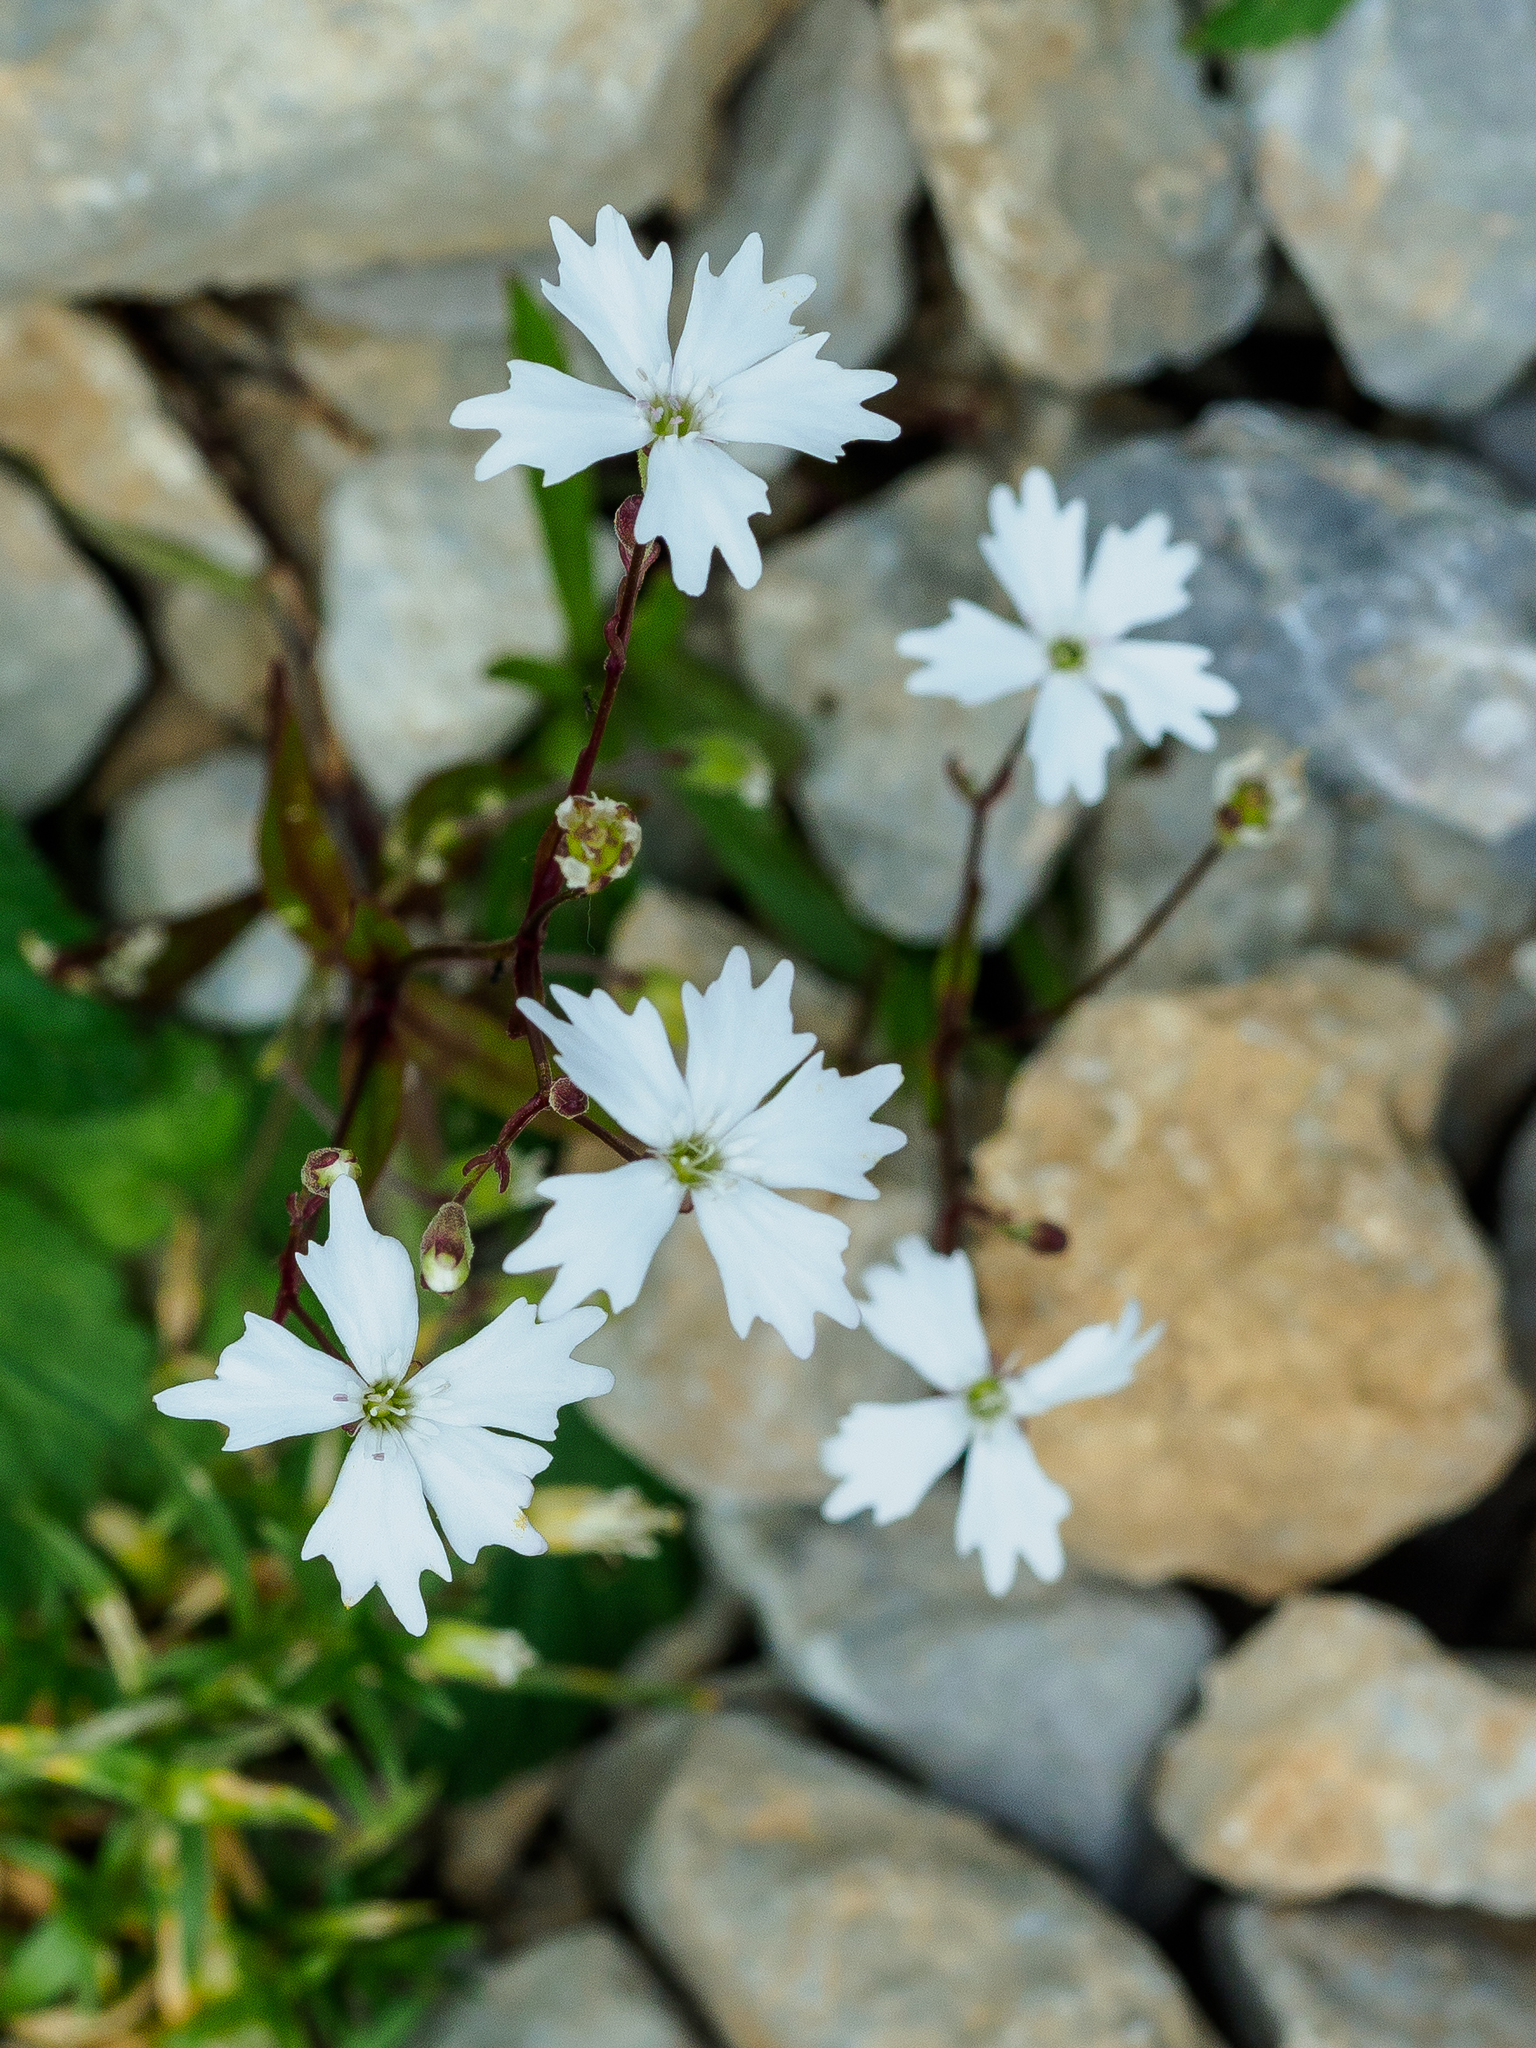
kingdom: Plantae
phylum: Tracheophyta
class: Magnoliopsida
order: Caryophyllales
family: Caryophyllaceae
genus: Heliosperma
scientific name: Heliosperma alpestre
